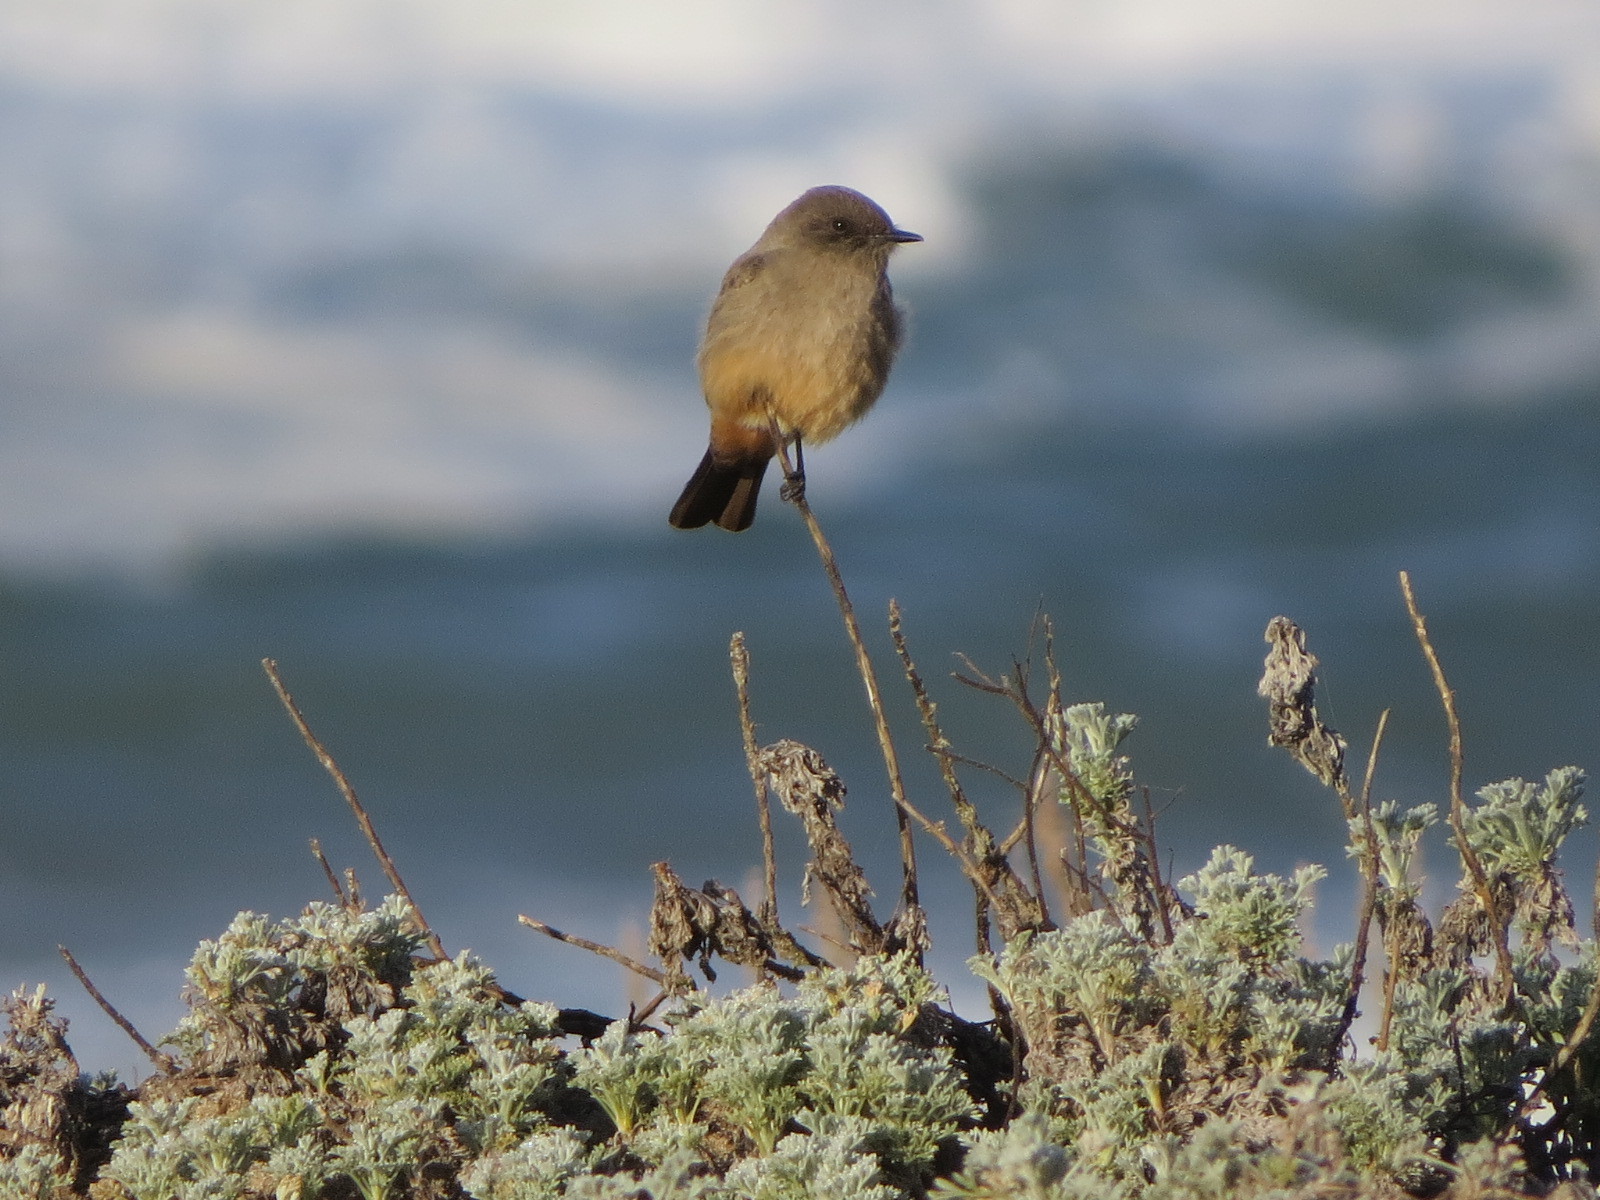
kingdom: Animalia
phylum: Chordata
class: Aves
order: Passeriformes
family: Tyrannidae
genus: Sayornis
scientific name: Sayornis saya
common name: Say's phoebe
